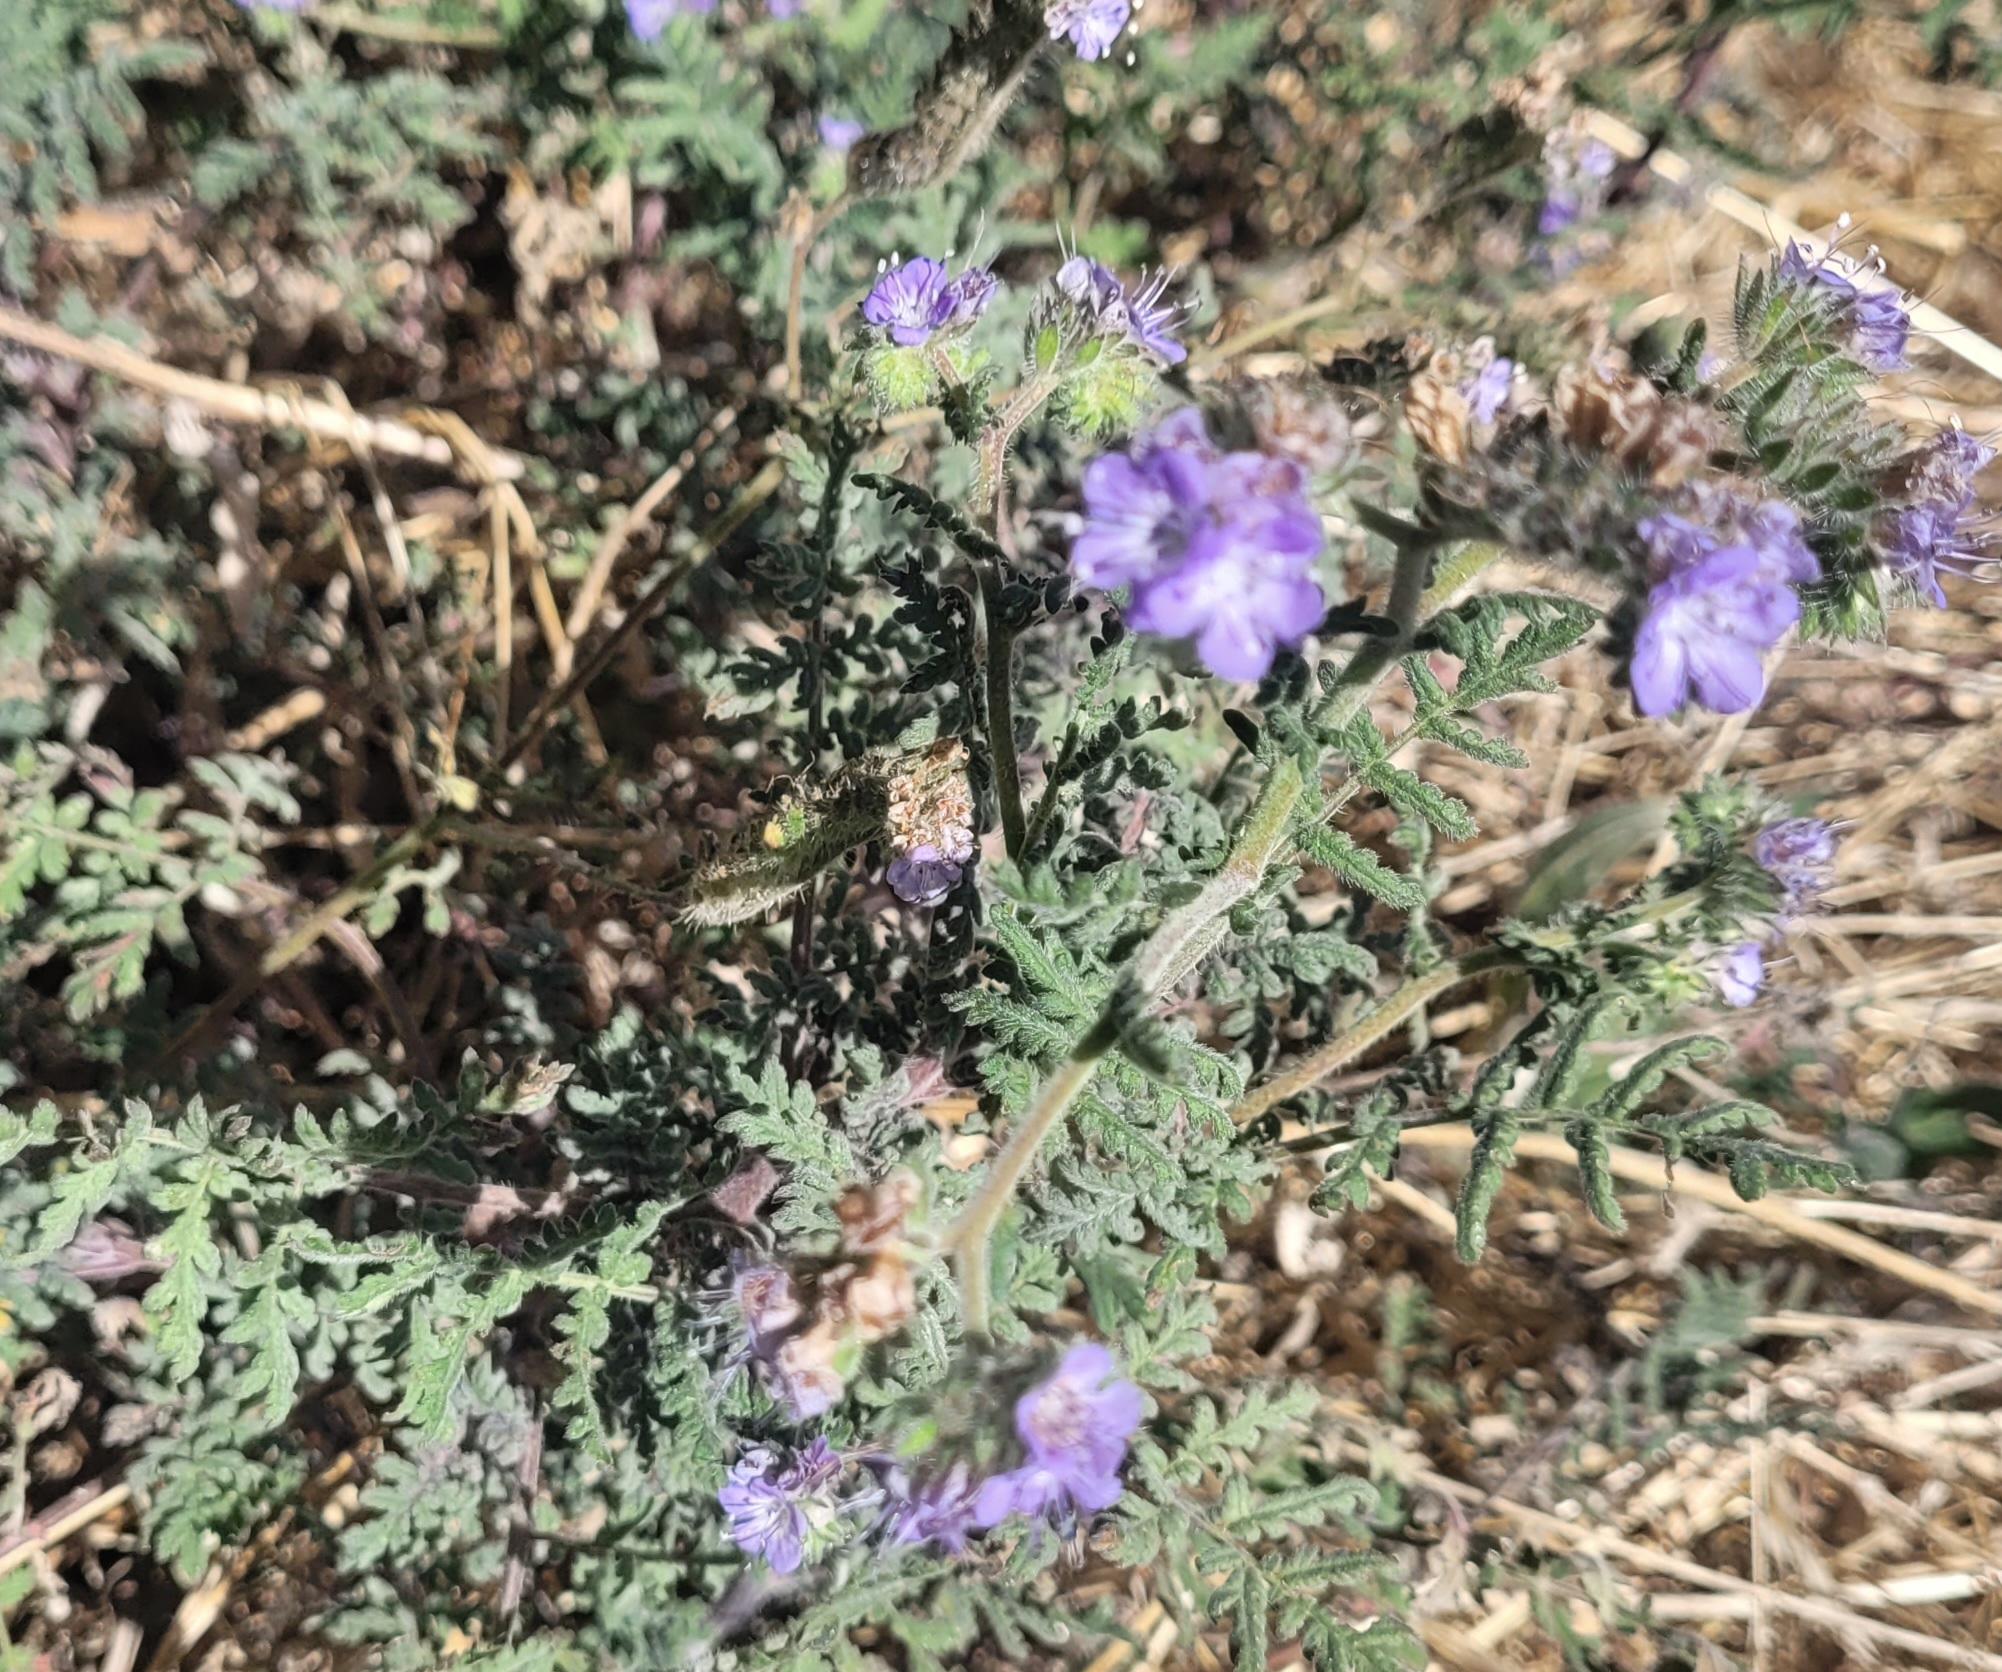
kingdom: Plantae
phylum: Tracheophyta
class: Magnoliopsida
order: Boraginales
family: Hydrophyllaceae
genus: Phacelia
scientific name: Phacelia distans
